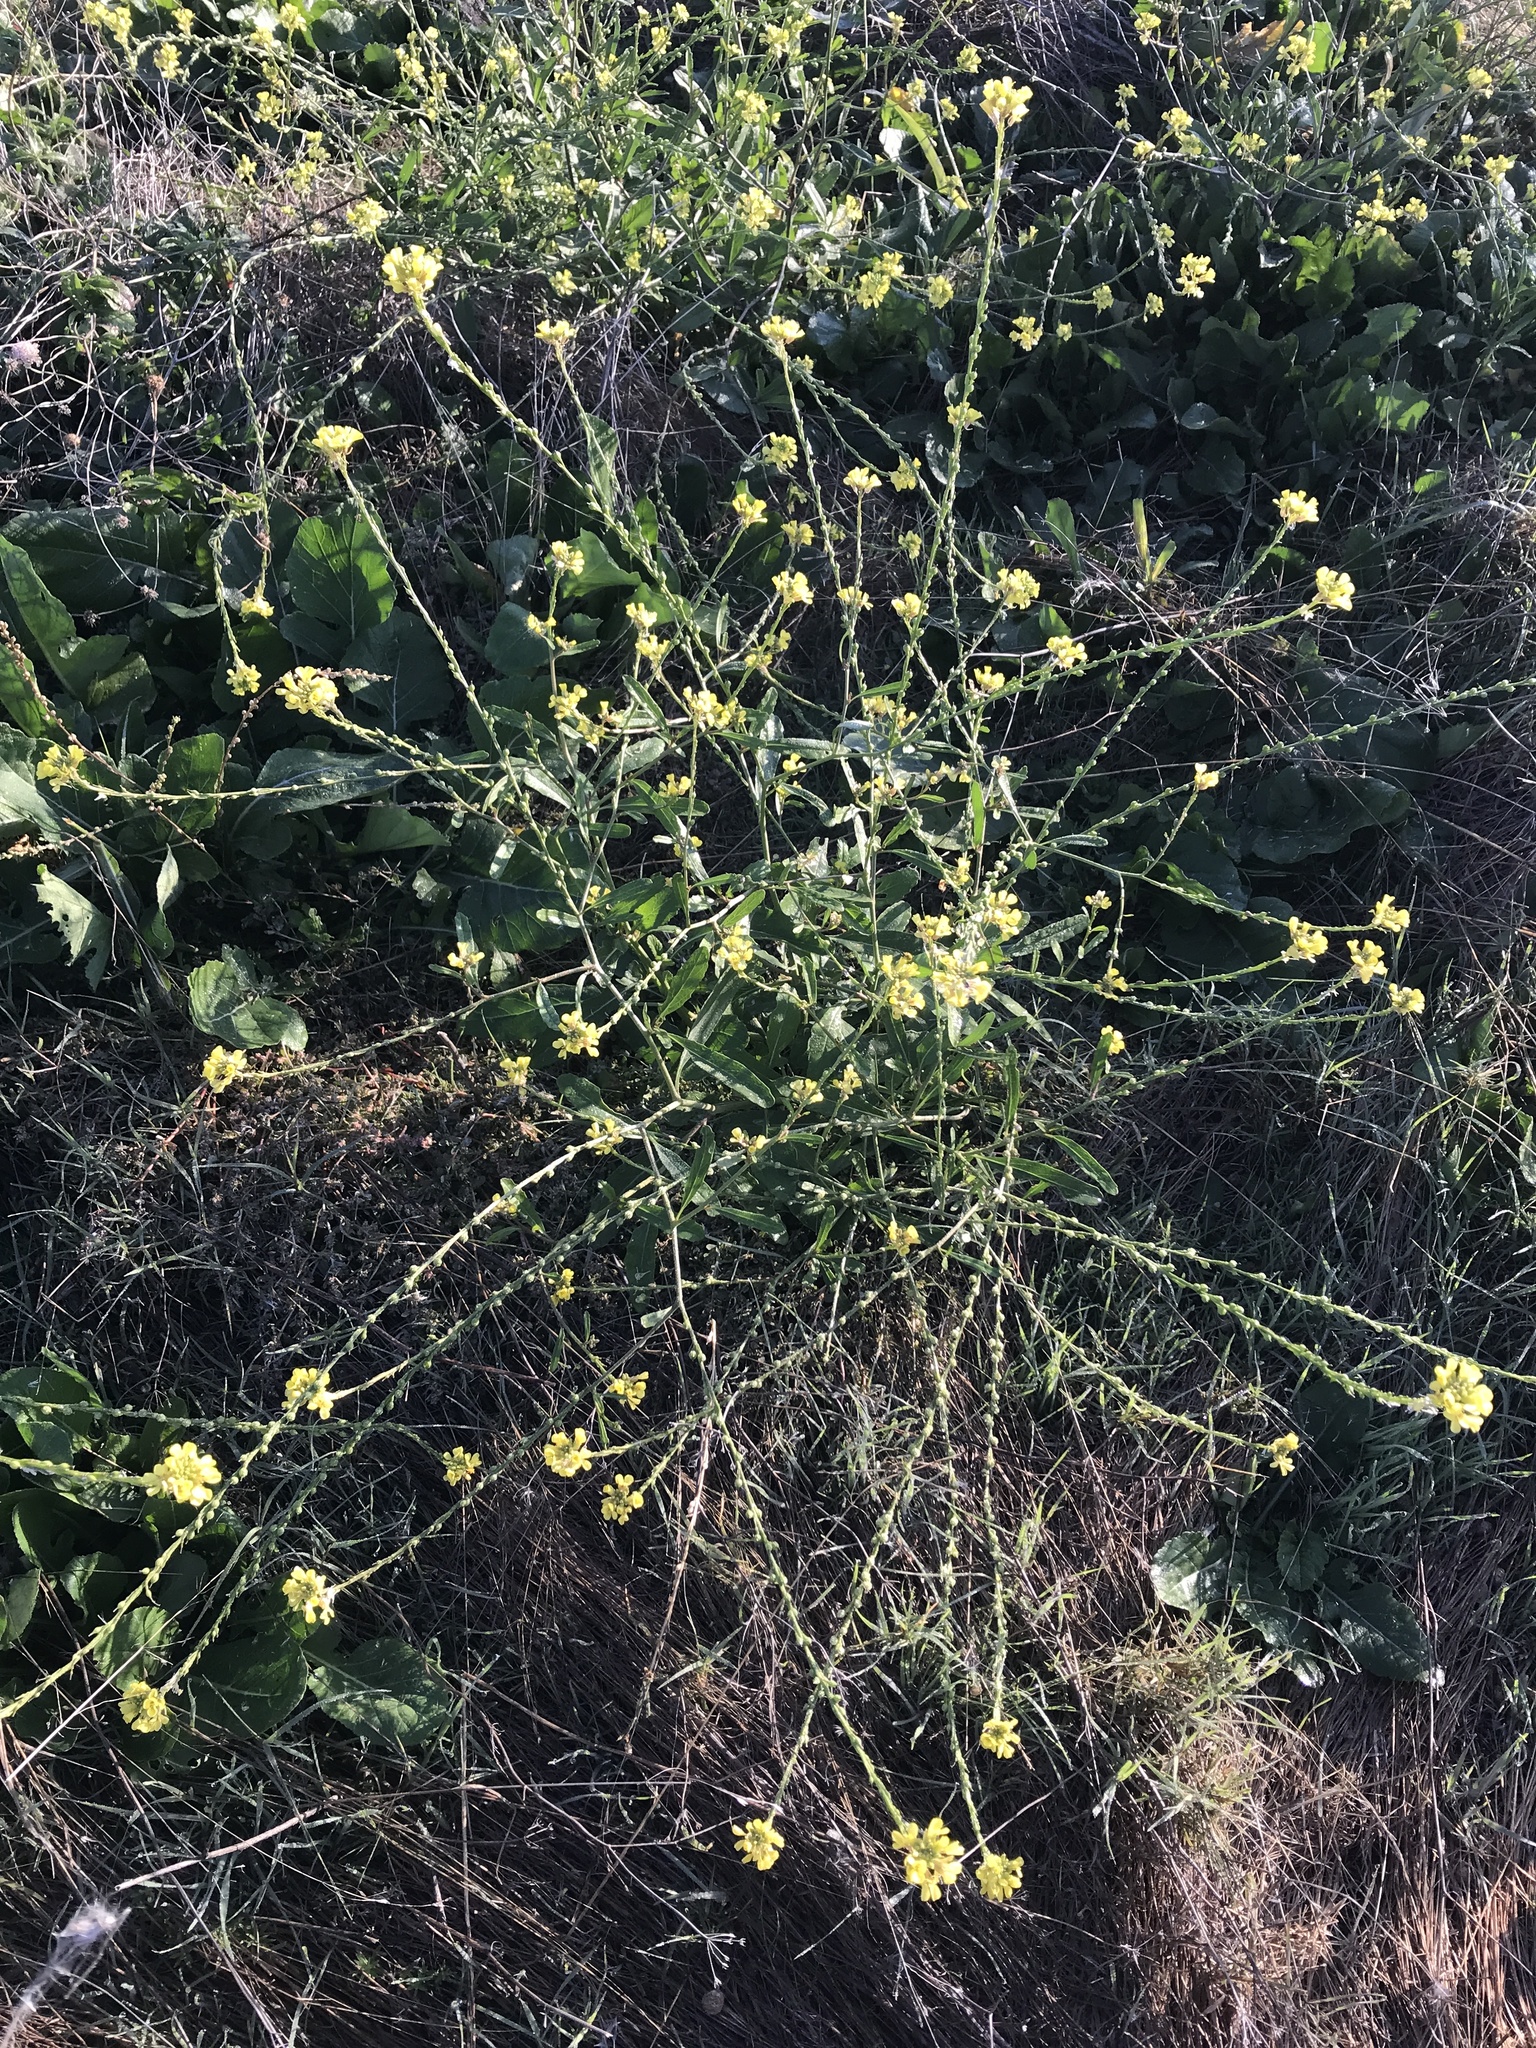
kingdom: Plantae
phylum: Tracheophyta
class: Magnoliopsida
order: Brassicales
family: Brassicaceae
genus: Rapistrum
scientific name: Rapistrum rugosum
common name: Annual bastardcabbage
